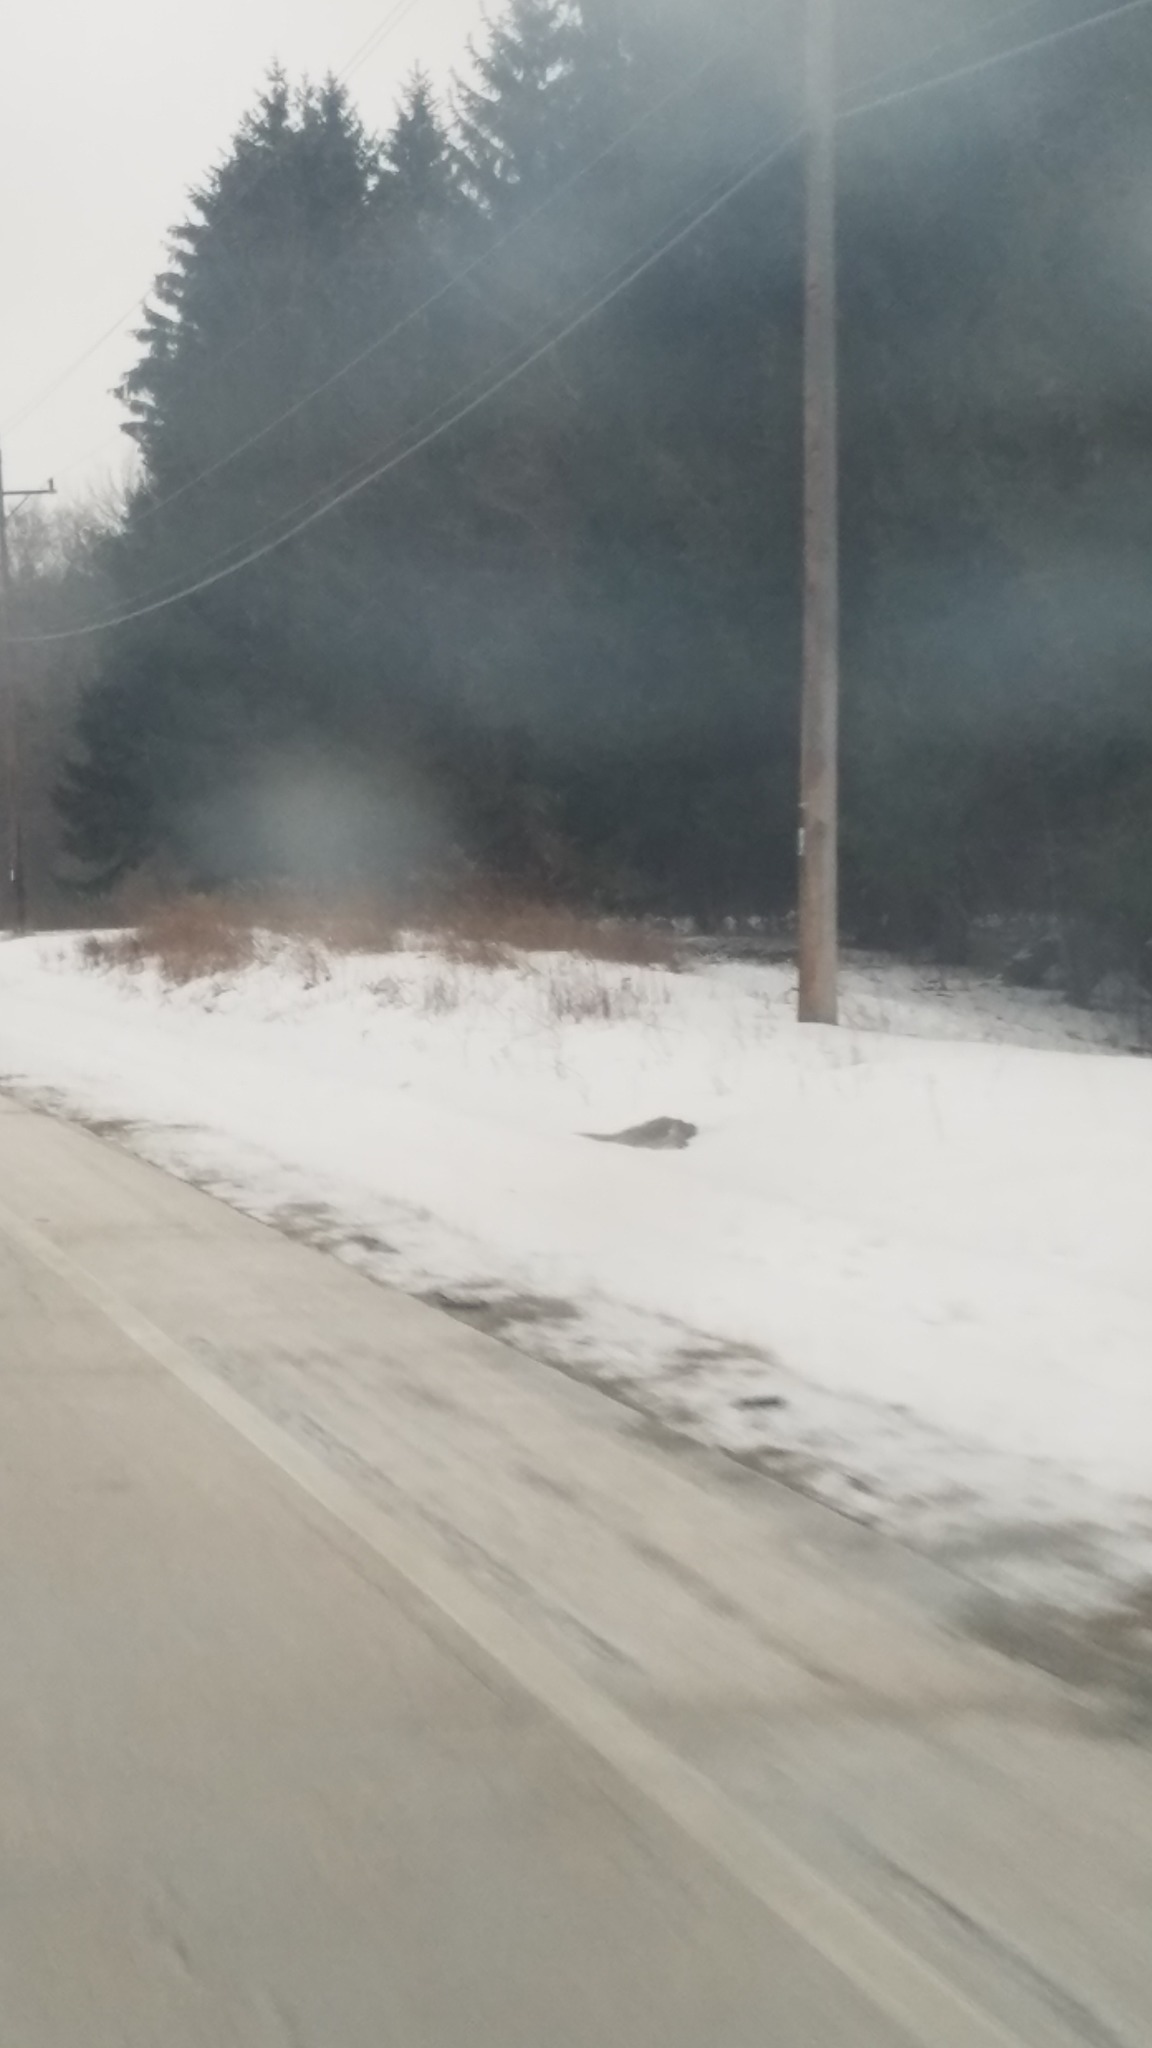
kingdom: Animalia
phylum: Chordata
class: Mammalia
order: Artiodactyla
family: Cervidae
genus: Odocoileus
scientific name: Odocoileus virginianus
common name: White-tailed deer
